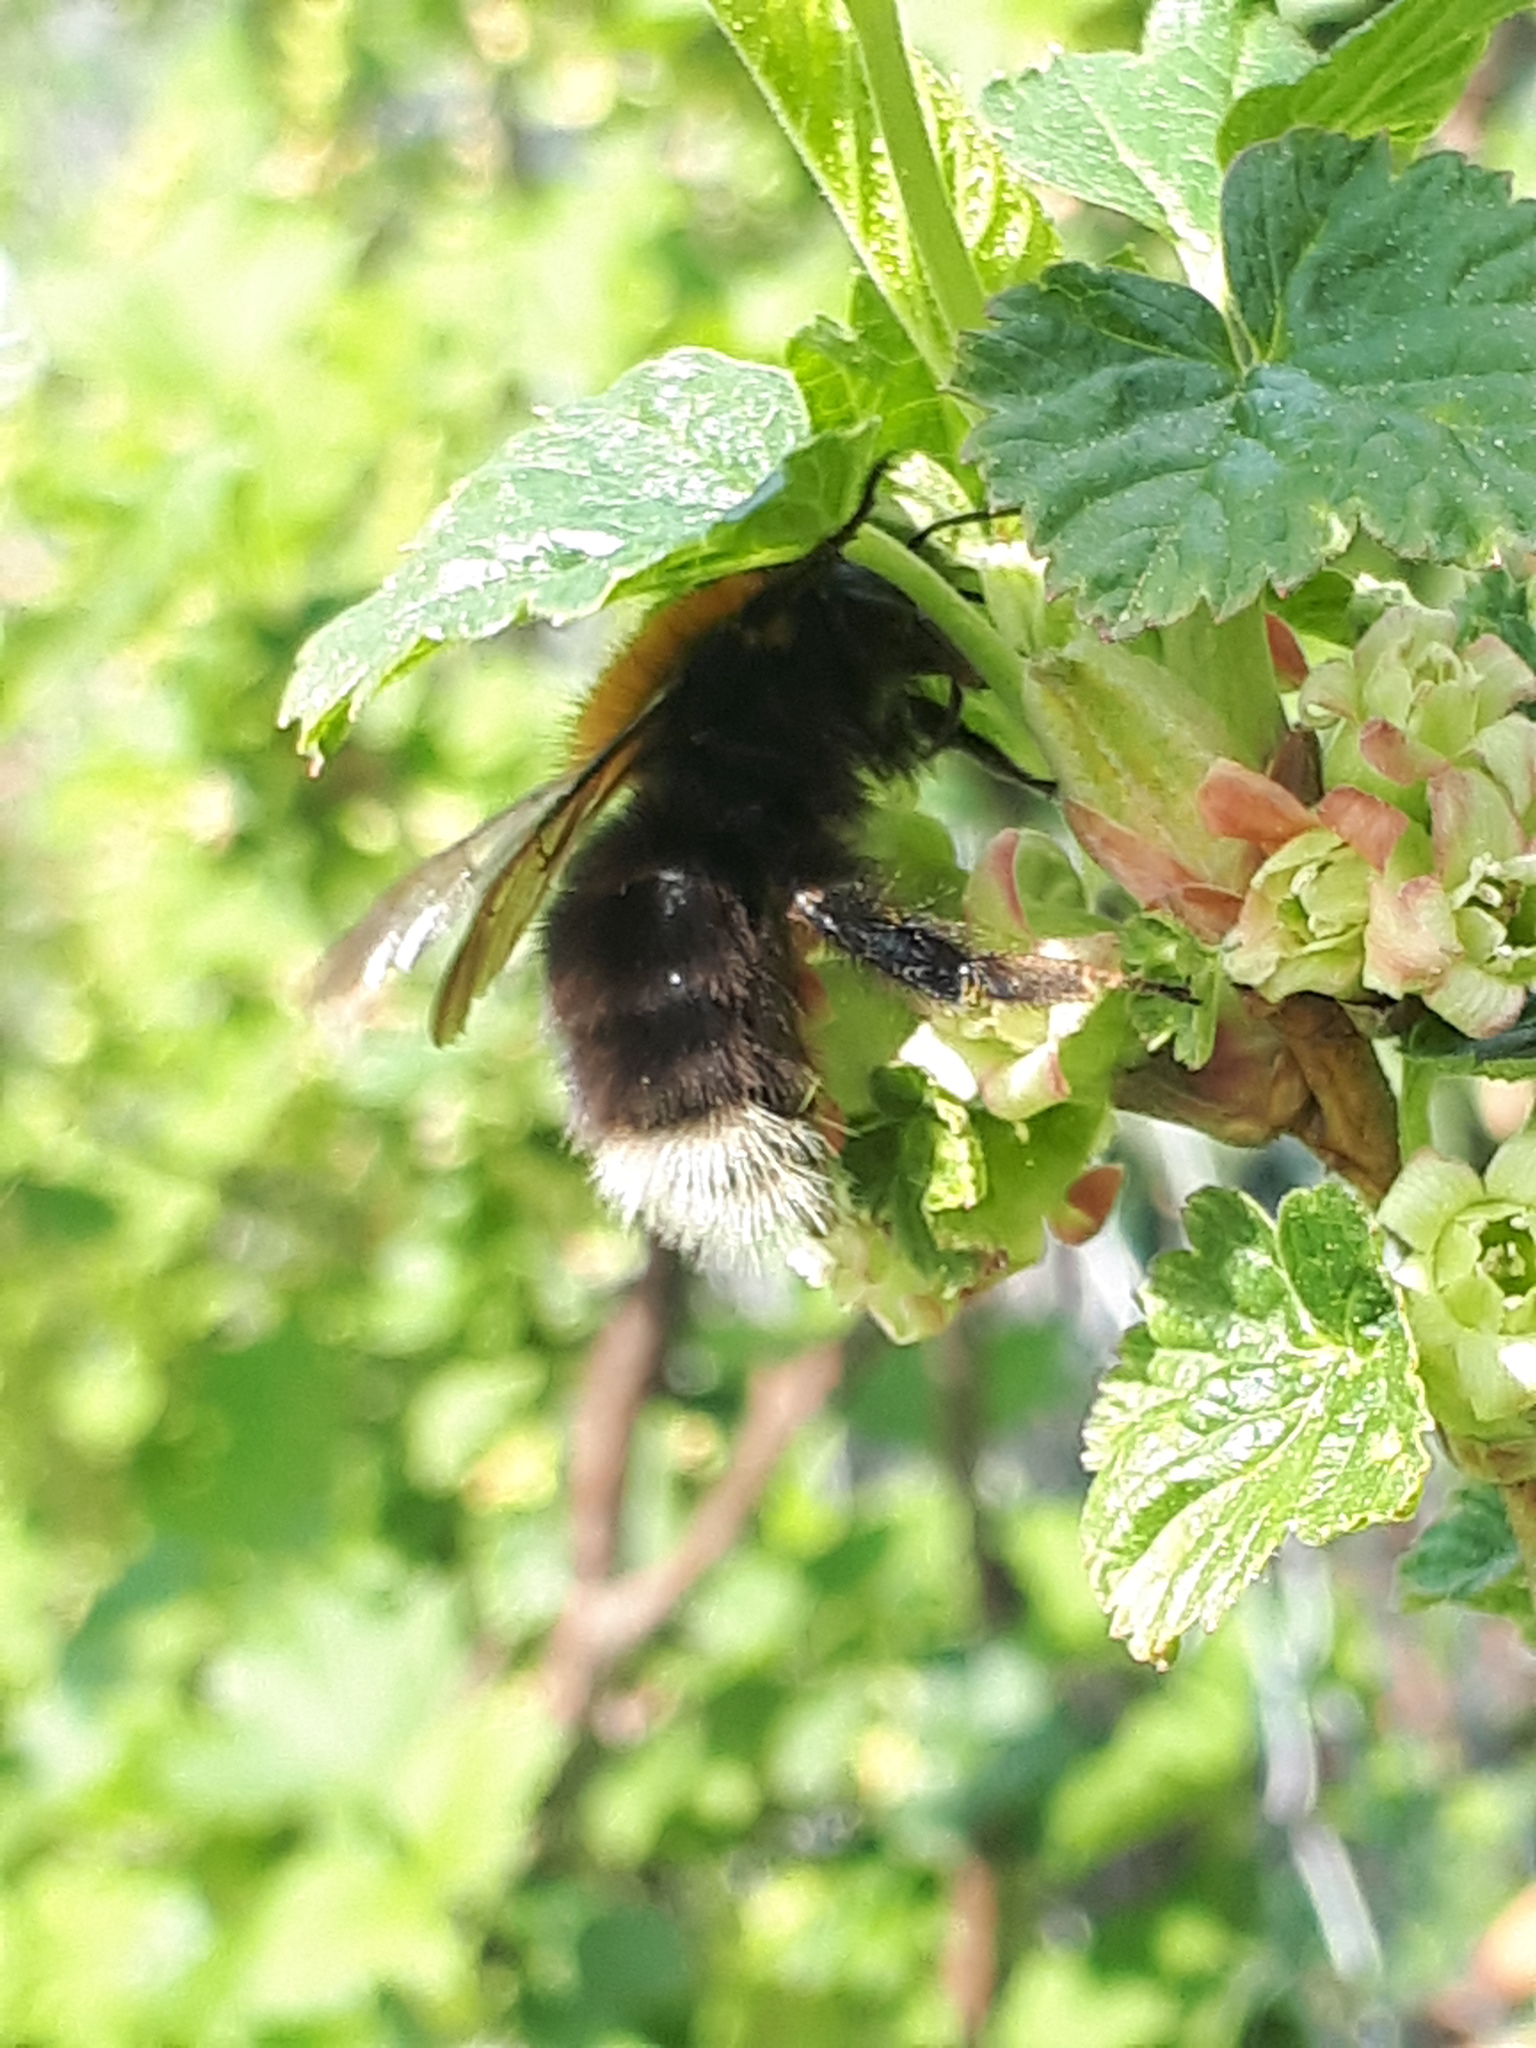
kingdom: Animalia
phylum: Arthropoda
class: Insecta
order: Hymenoptera
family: Apidae
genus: Bombus
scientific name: Bombus hypnorum
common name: New garden bumblebee
